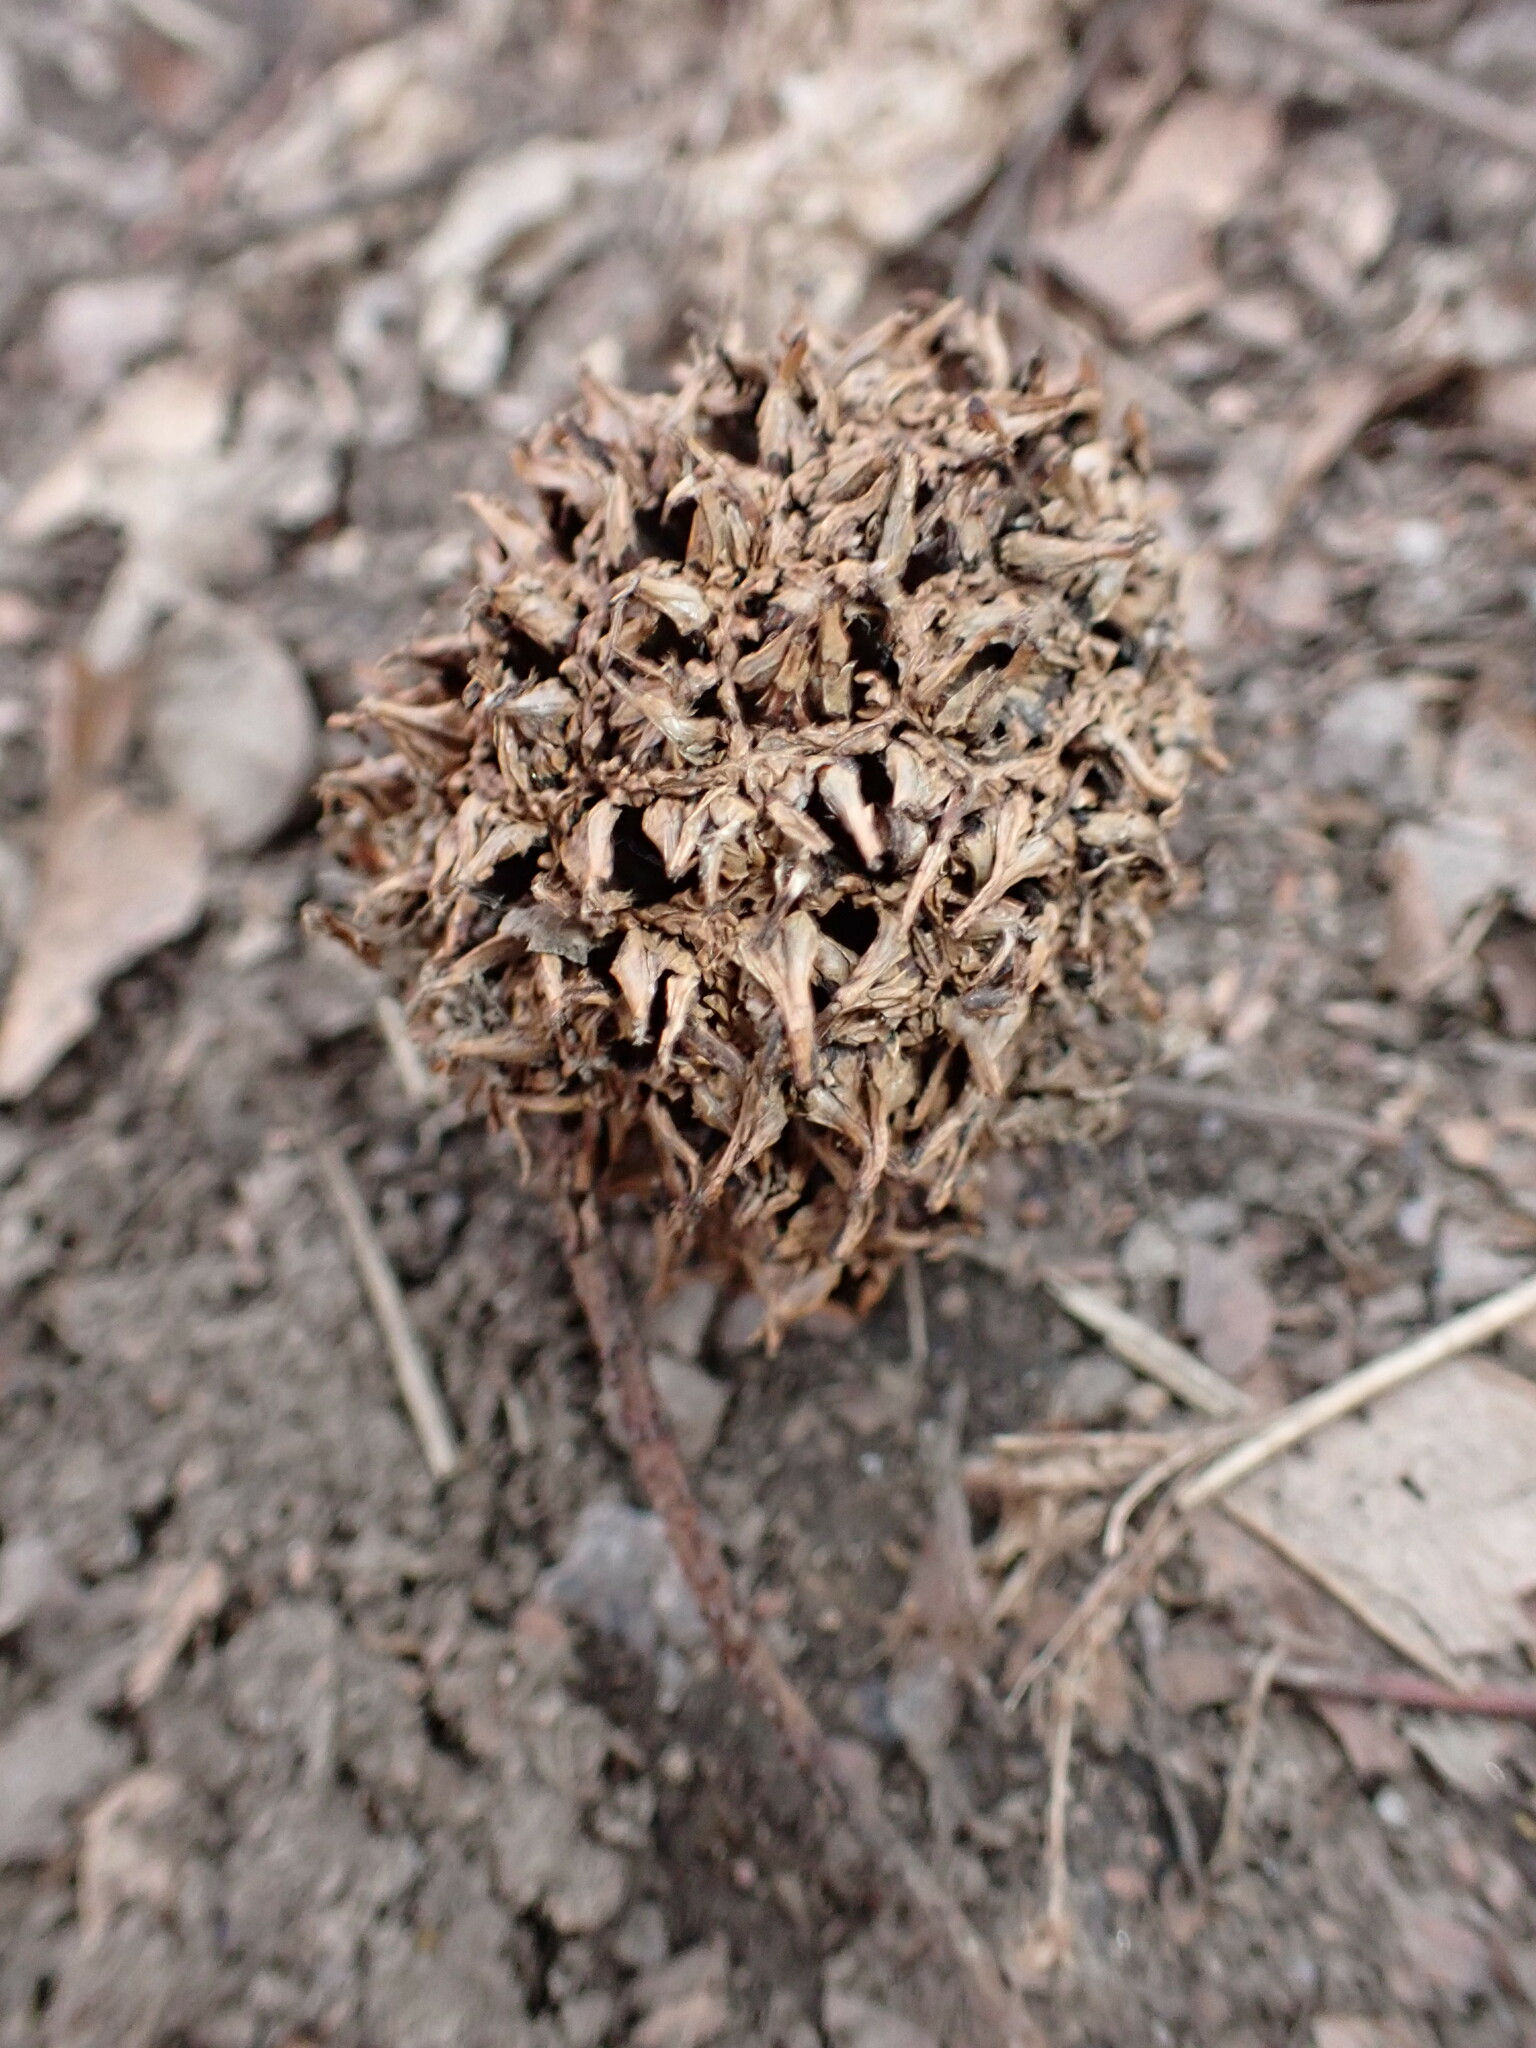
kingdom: Plantae
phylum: Tracheophyta
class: Magnoliopsida
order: Saxifragales
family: Altingiaceae
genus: Liquidambar
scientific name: Liquidambar styraciflua
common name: Sweet gum
